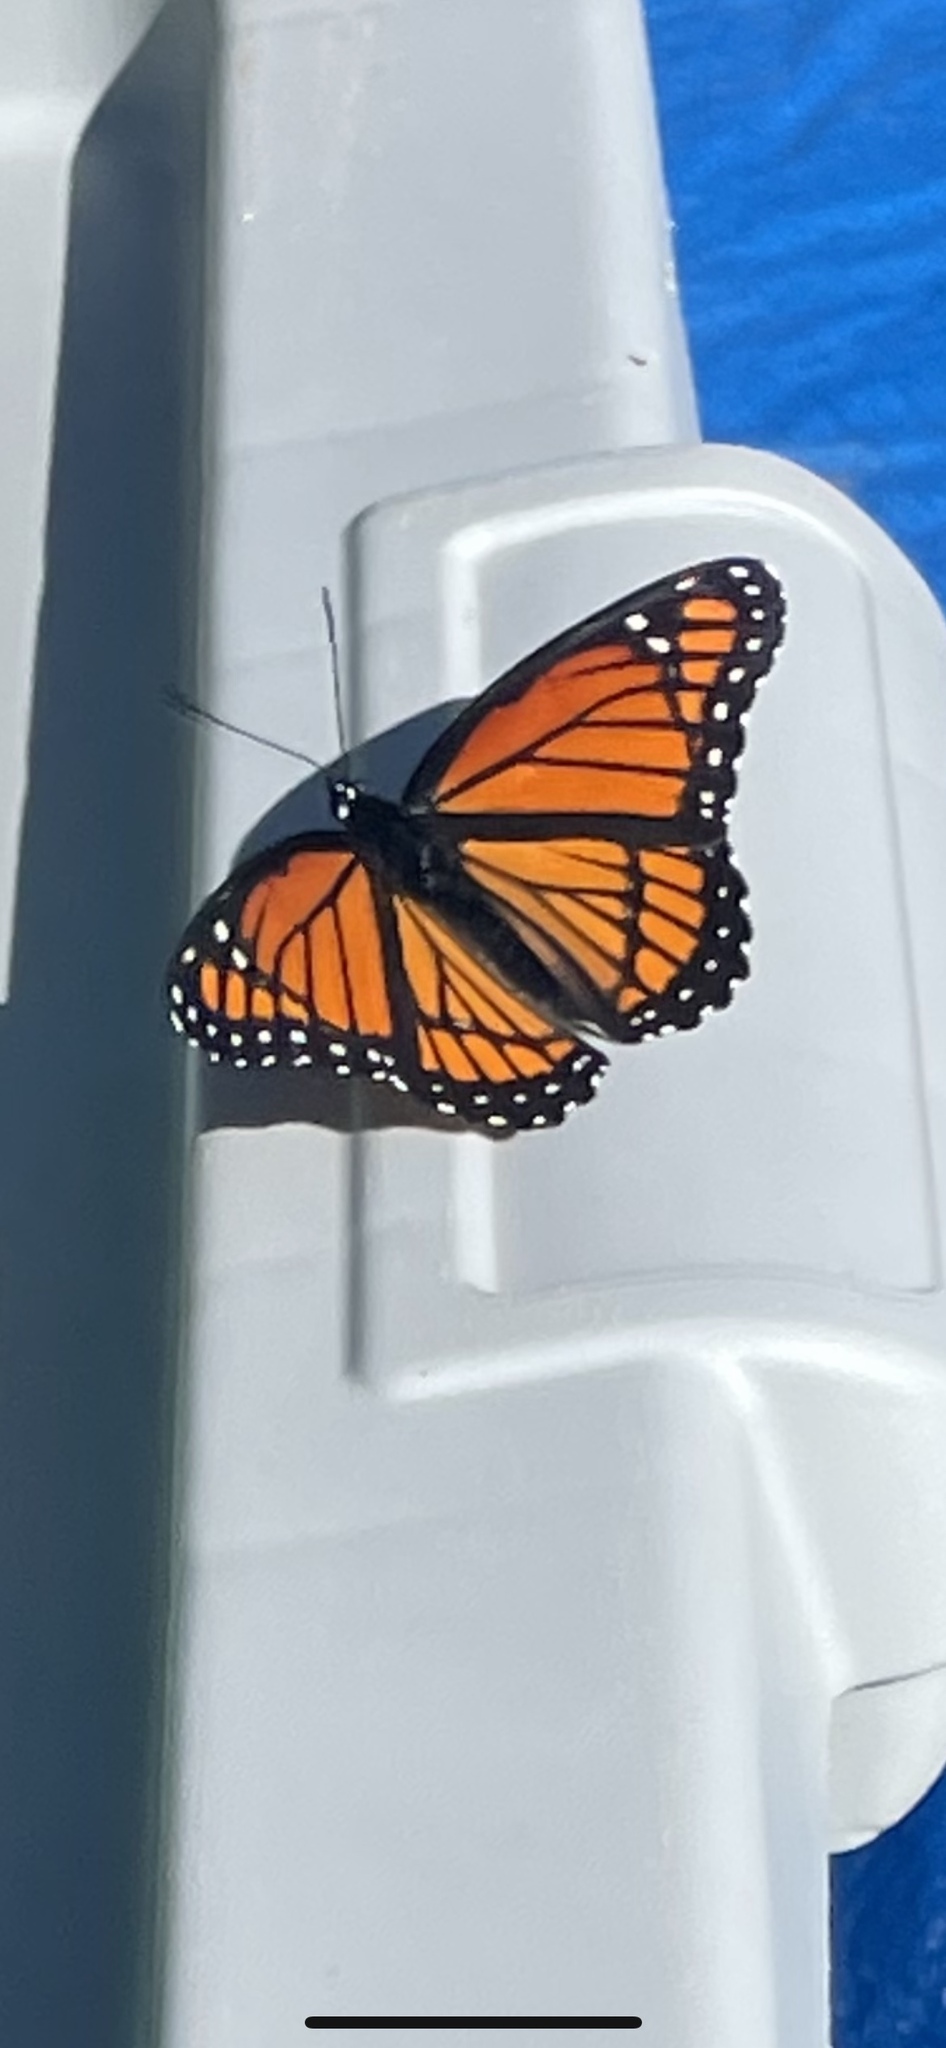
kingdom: Animalia
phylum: Arthropoda
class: Insecta
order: Lepidoptera
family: Nymphalidae
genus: Limenitis
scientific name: Limenitis archippus
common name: Viceroy
